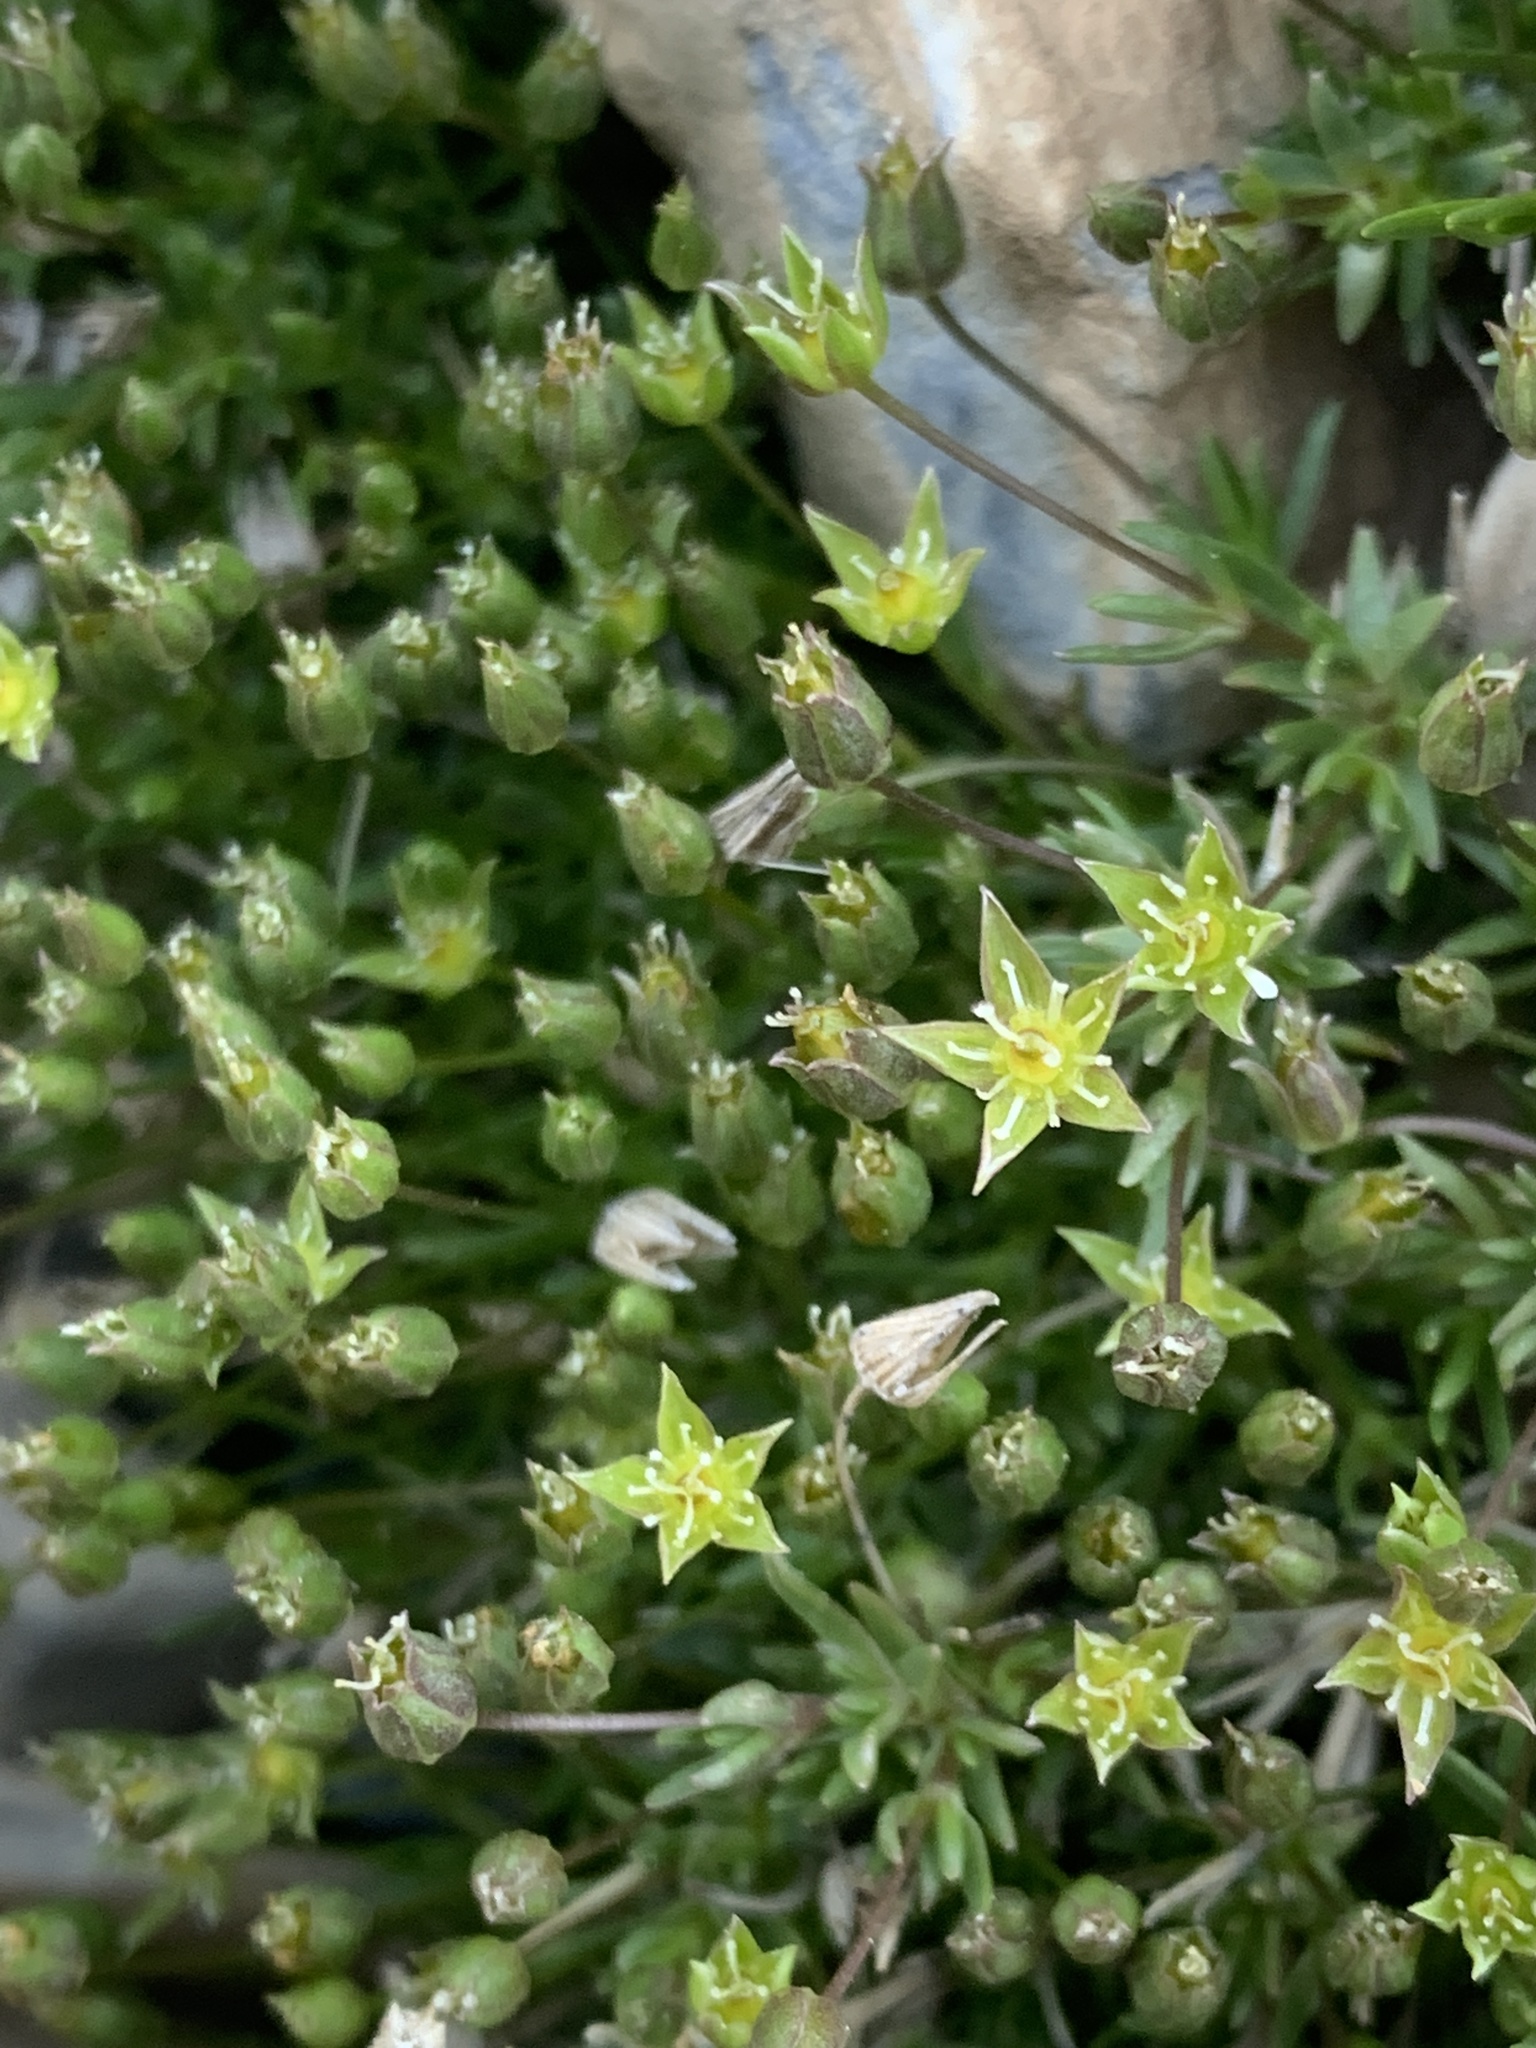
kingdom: Plantae
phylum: Tracheophyta
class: Magnoliopsida
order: Caryophyllales
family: Caryophyllaceae
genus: Sabulina
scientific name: Sabulina austromontana
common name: Columbia stitchwort
